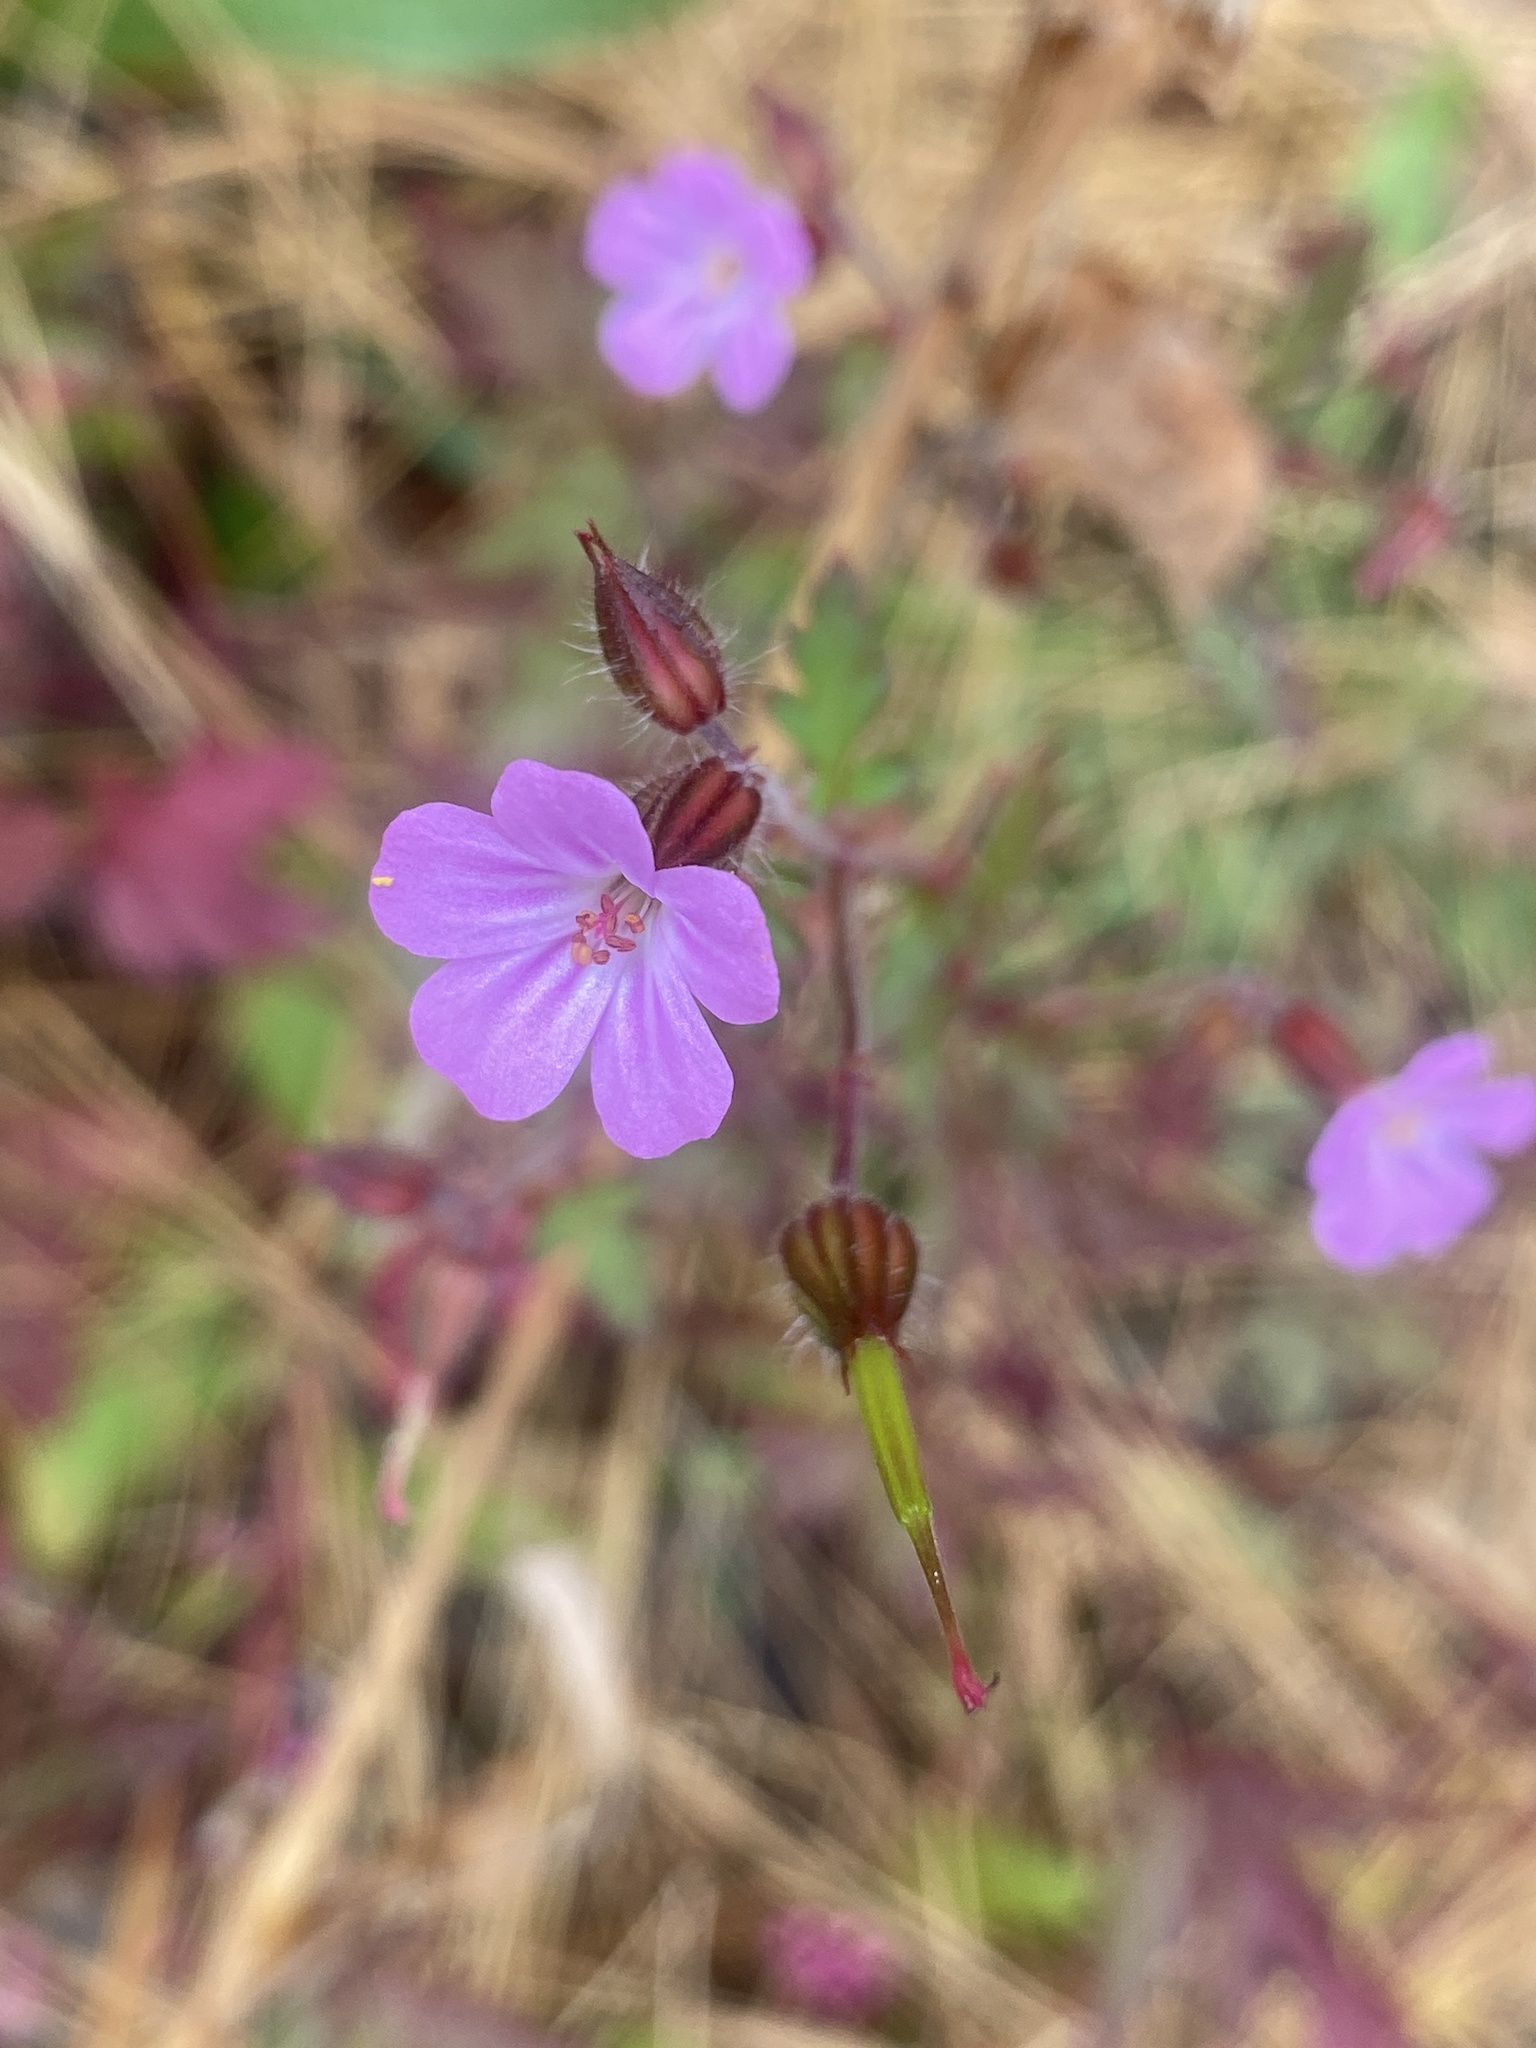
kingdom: Plantae
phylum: Tracheophyta
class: Magnoliopsida
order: Geraniales
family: Geraniaceae
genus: Geranium
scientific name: Geranium robertianum
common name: Herb-robert
